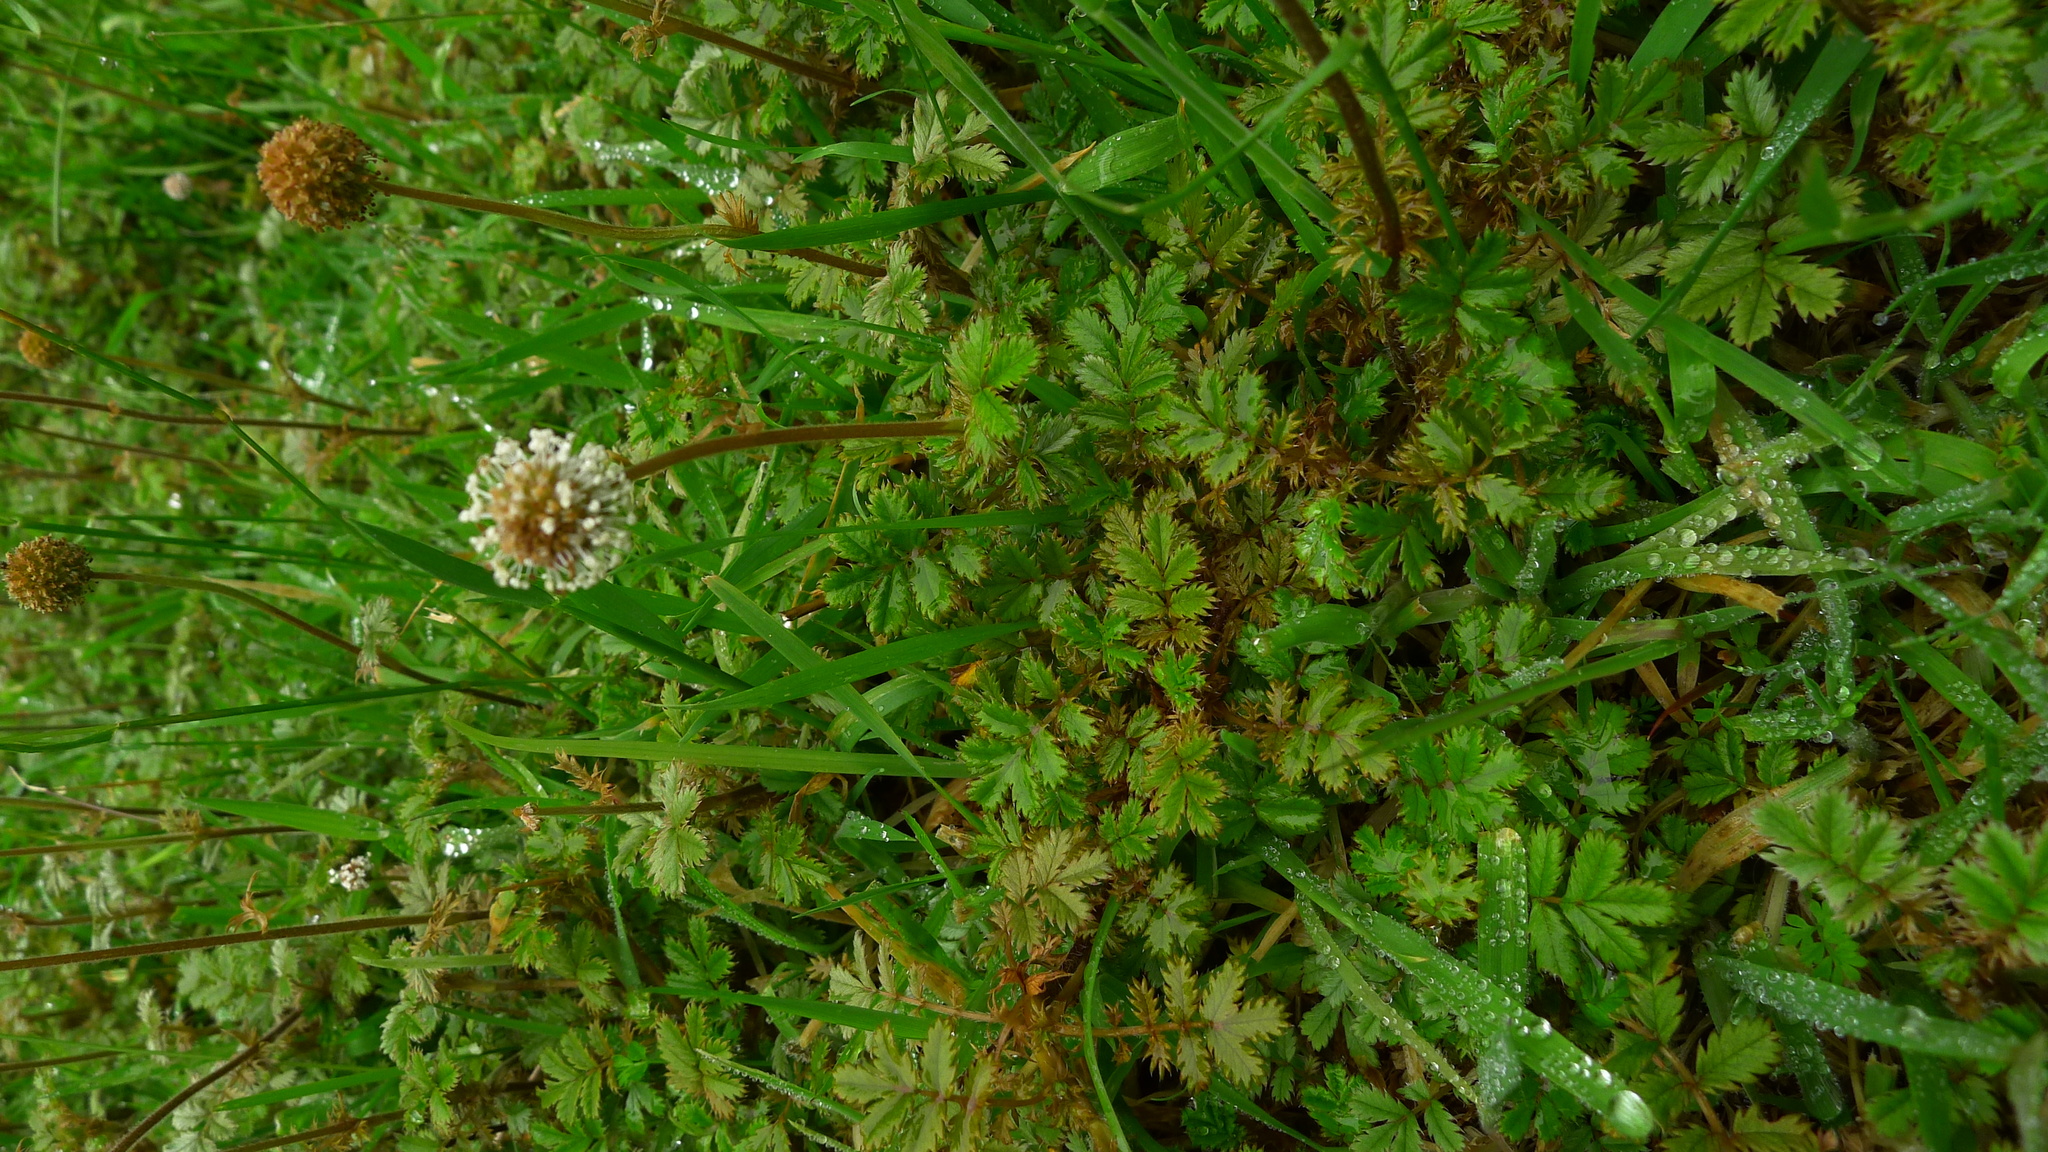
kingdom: Plantae
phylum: Tracheophyta
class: Magnoliopsida
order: Rosales
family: Rosaceae
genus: Acaena
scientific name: Acaena anserinifolia
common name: Bronze pirri-pirri-bur
